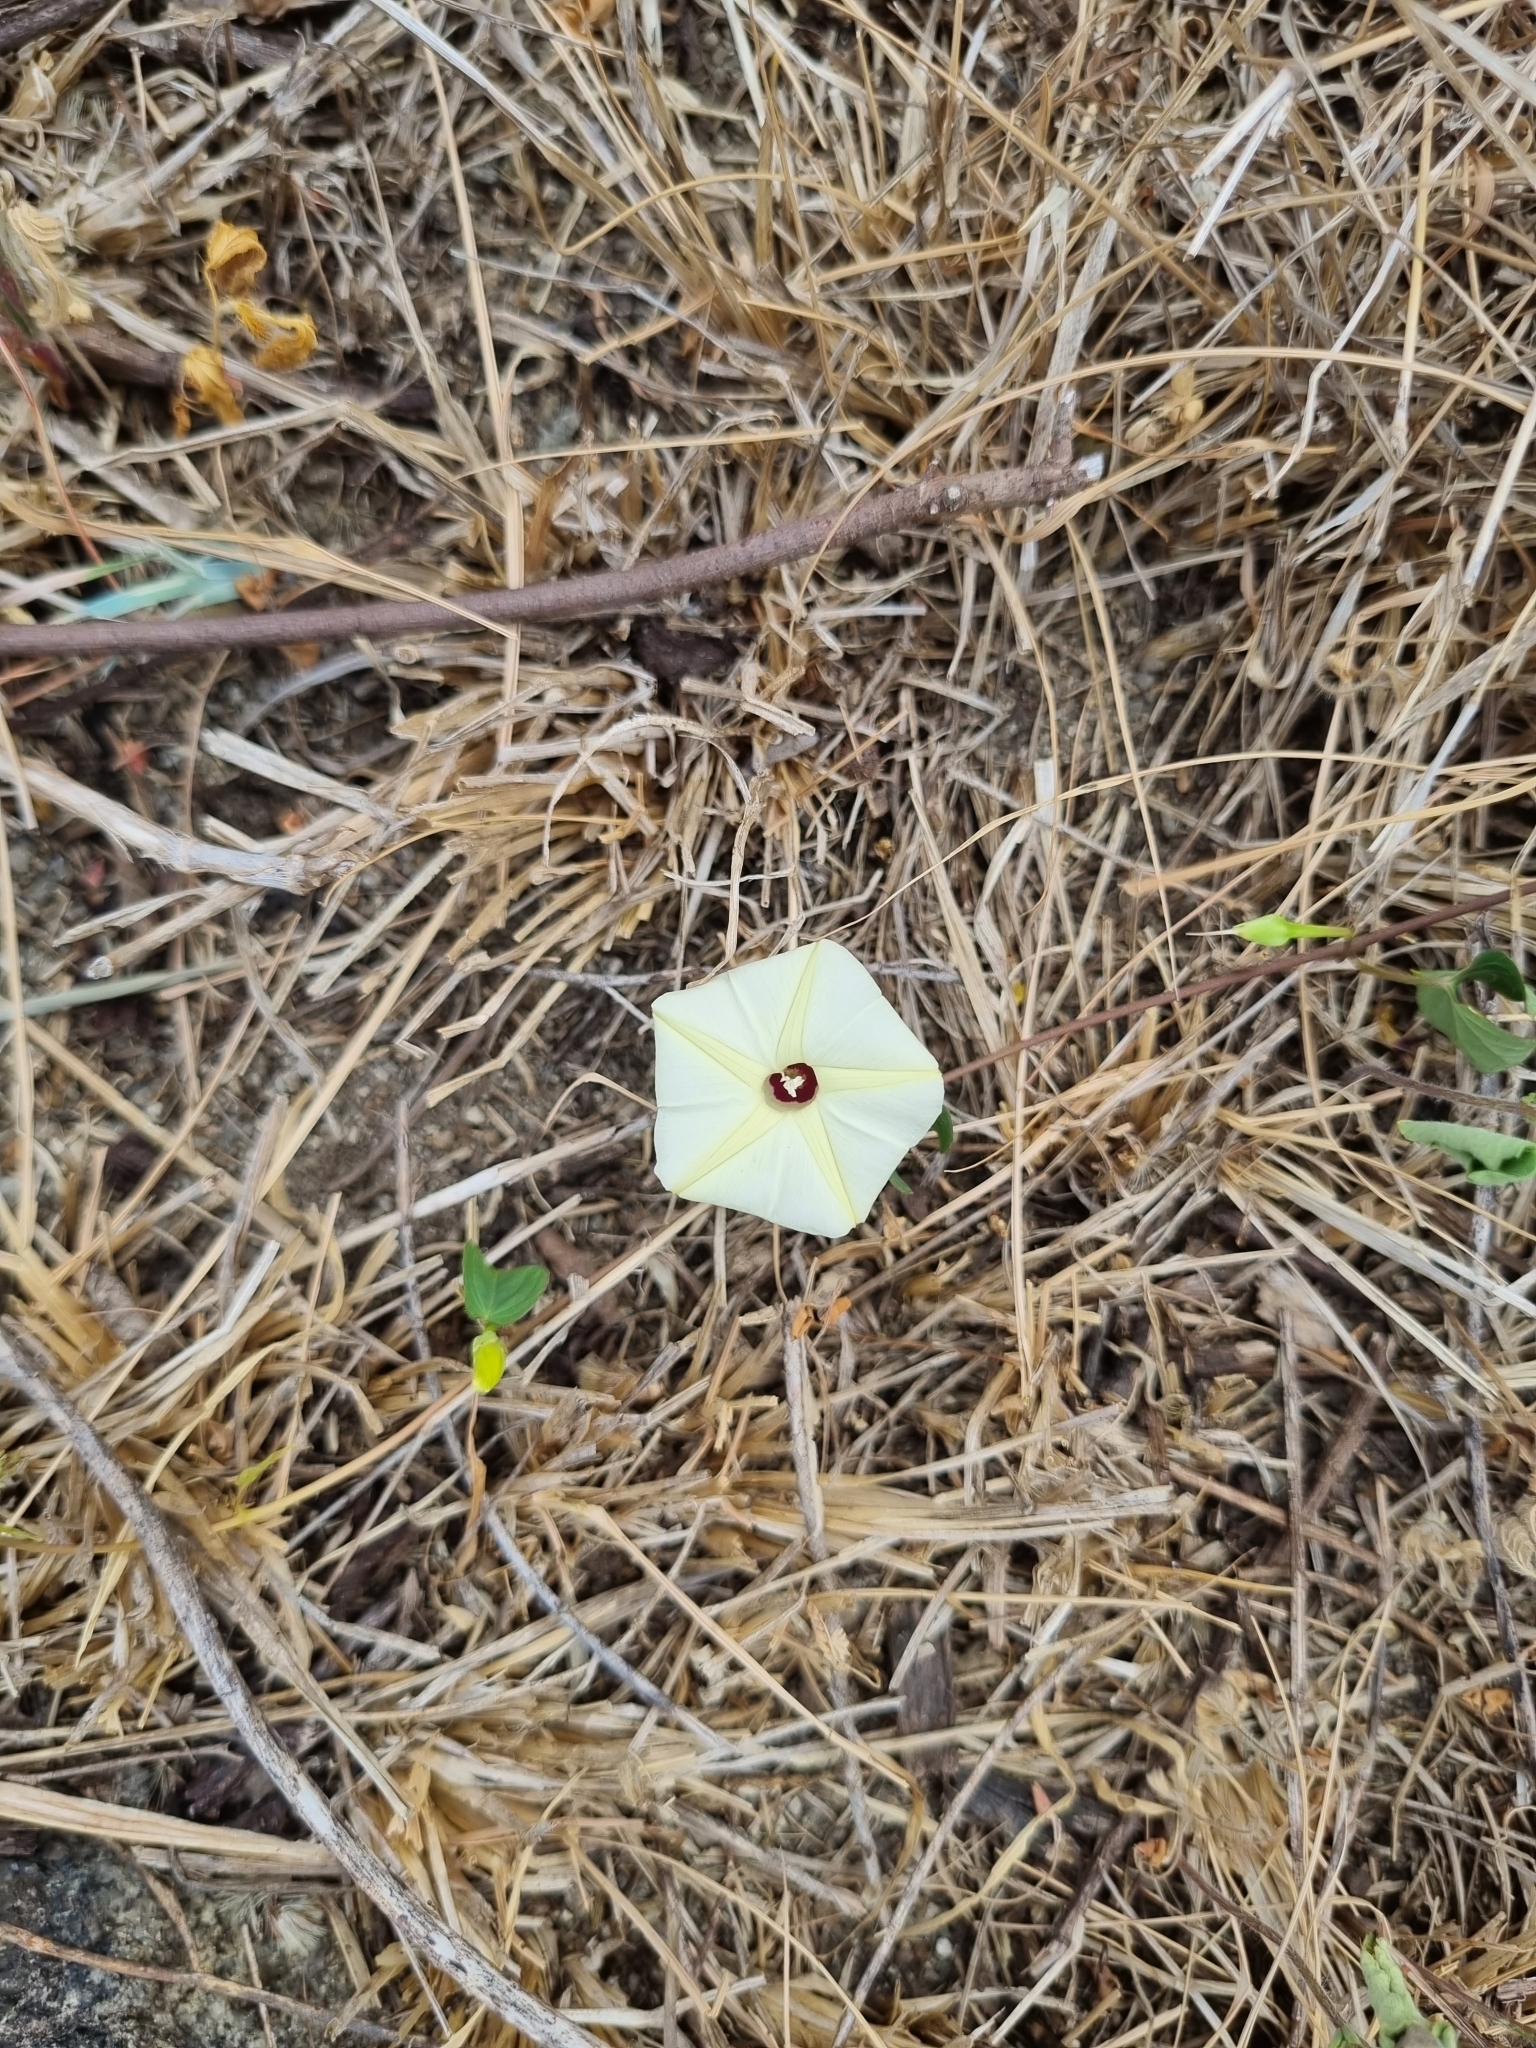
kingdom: Plantae
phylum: Tracheophyta
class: Magnoliopsida
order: Solanales
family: Convolvulaceae
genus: Ipomoea
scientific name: Ipomoea obscura
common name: Obscure morning-glory
